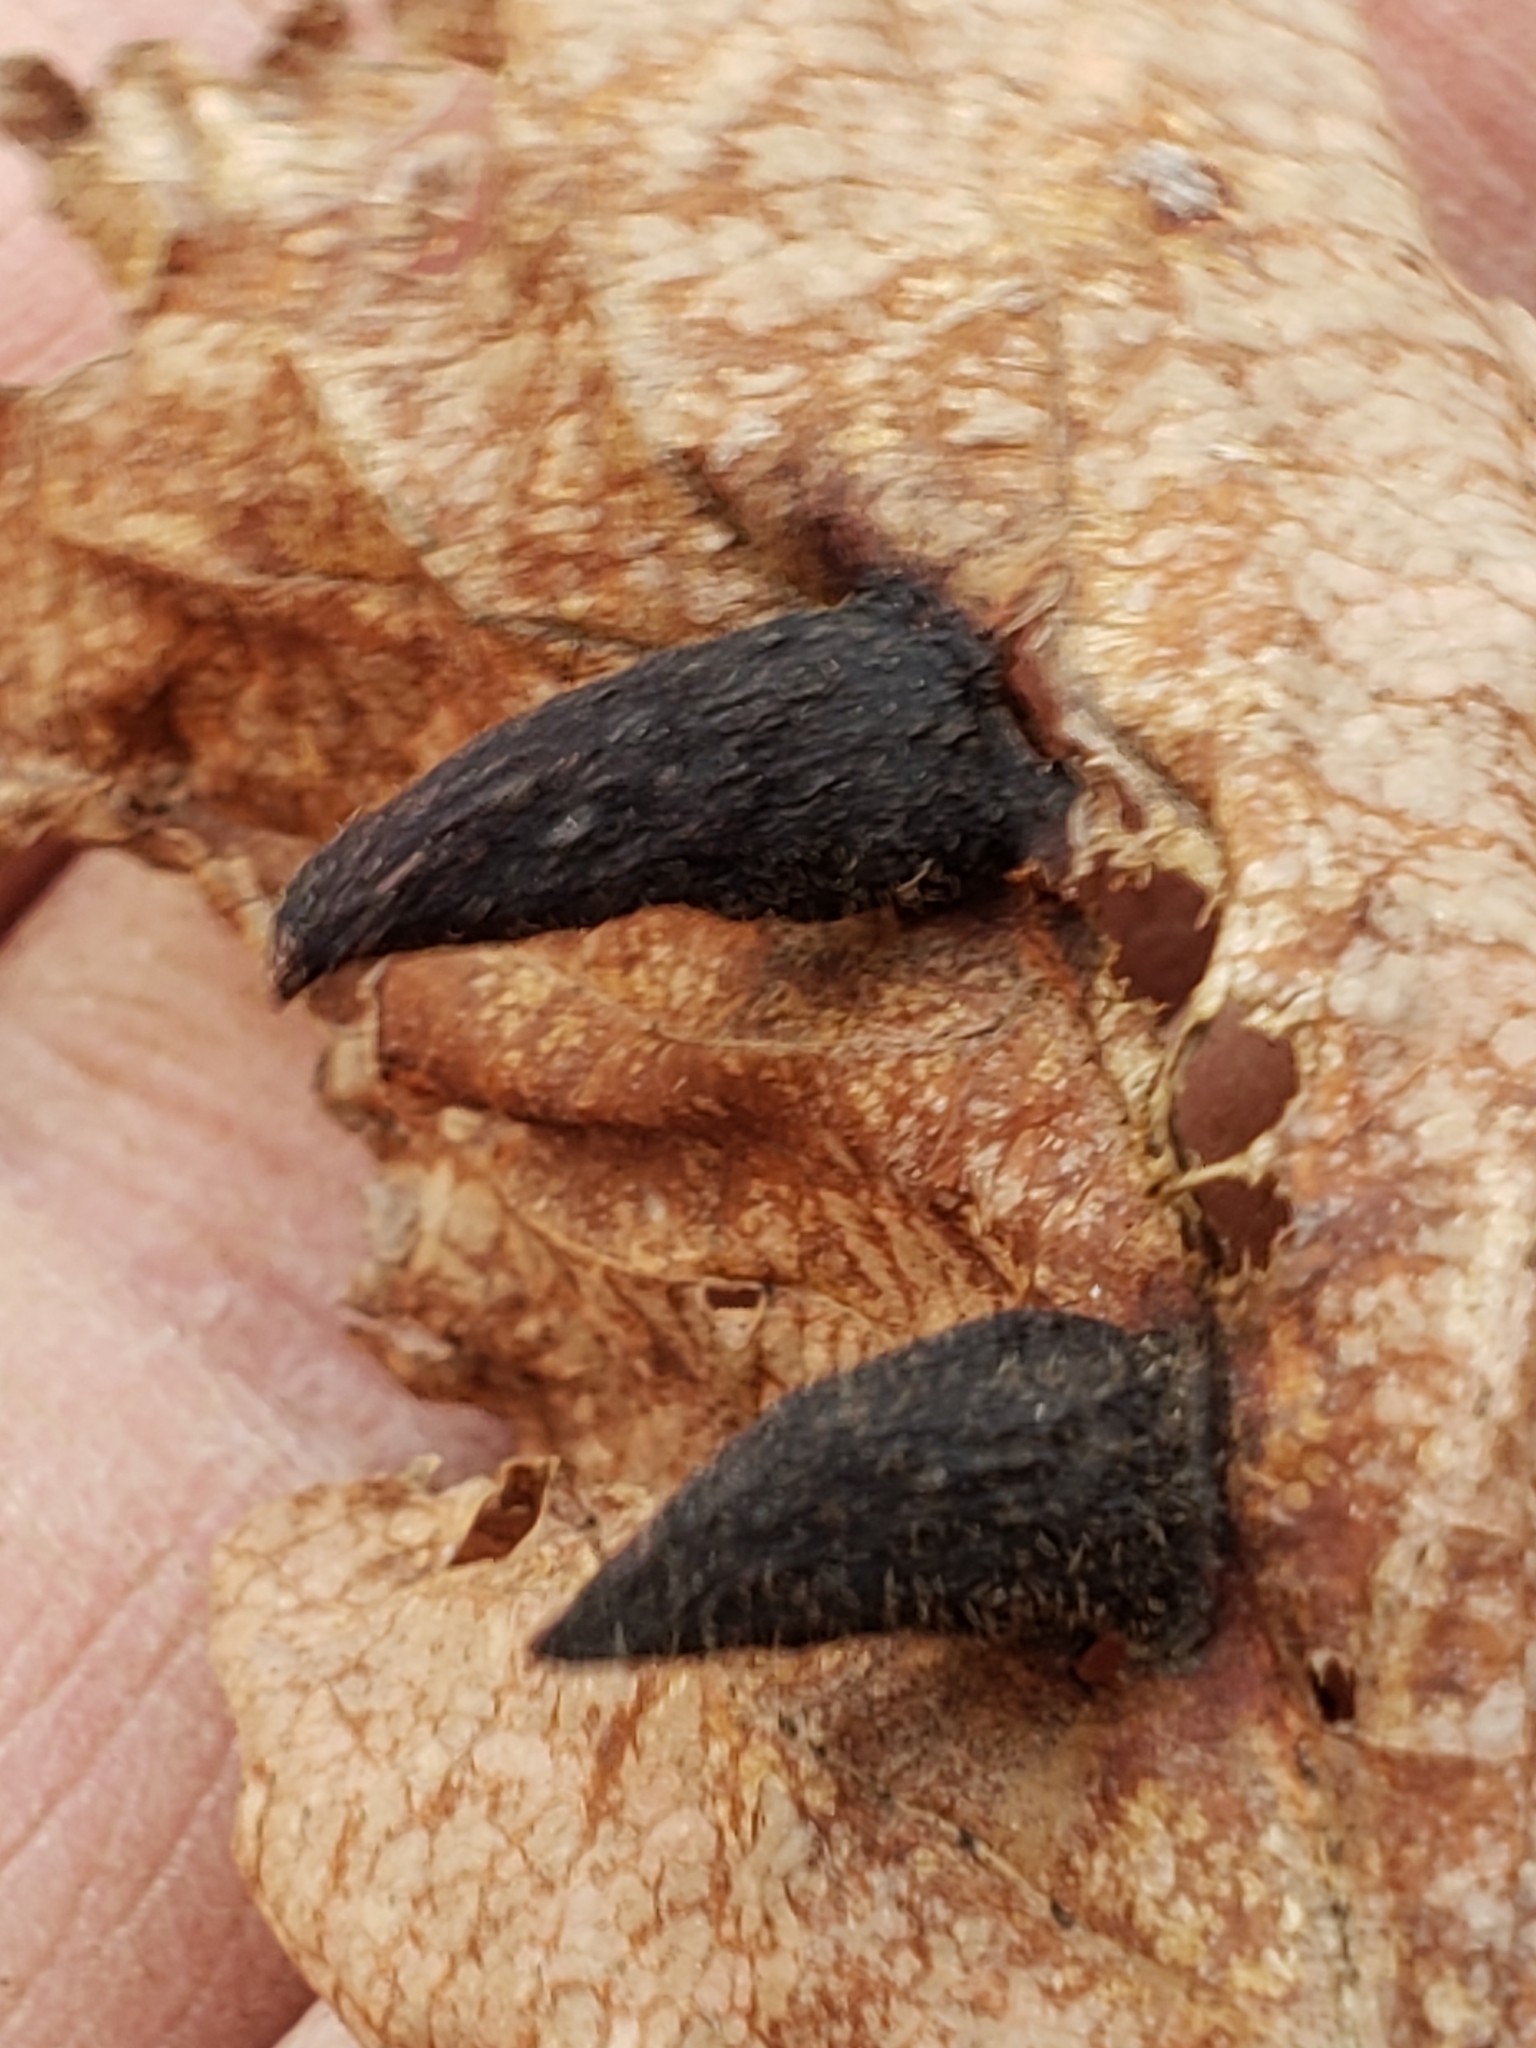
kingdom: Animalia
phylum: Arthropoda
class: Insecta
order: Hemiptera
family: Aphididae
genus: Hormaphis
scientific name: Hormaphis hamamelidis
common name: Witch-hazel cone gall aphid
